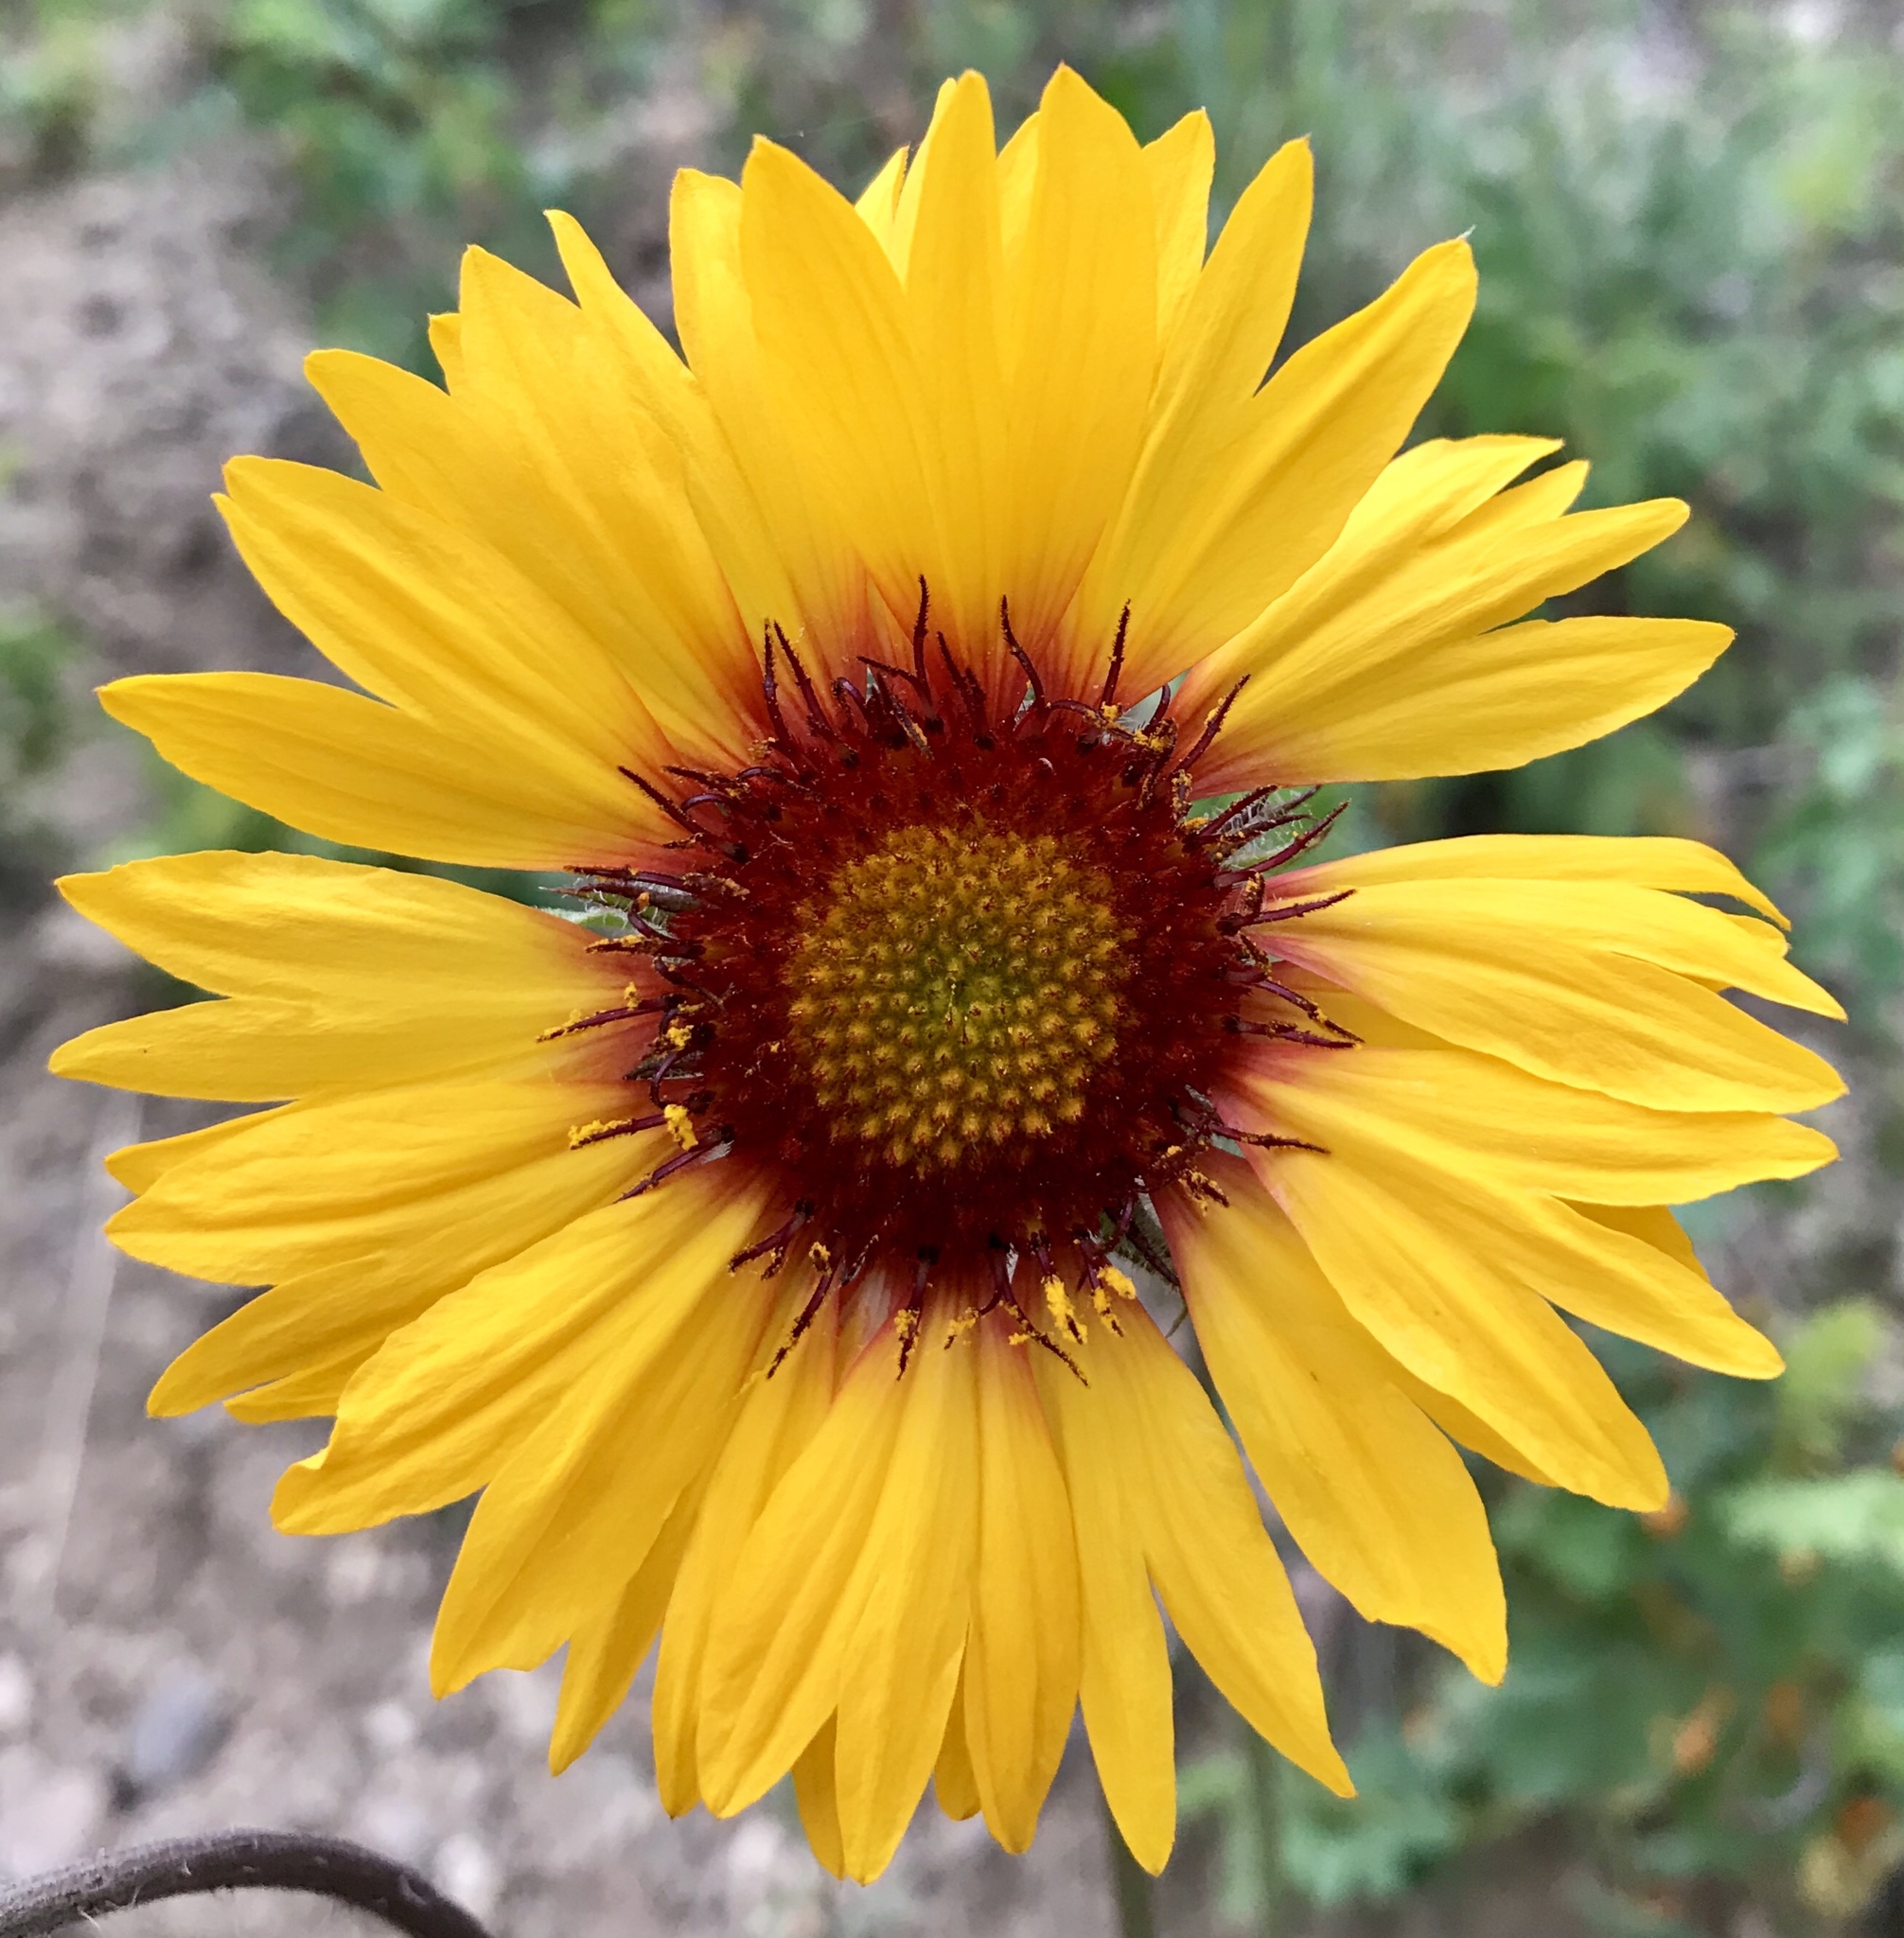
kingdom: Plantae
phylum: Tracheophyta
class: Magnoliopsida
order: Asterales
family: Asteraceae
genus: Gaillardia
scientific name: Gaillardia aristata
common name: Blanket-flower
